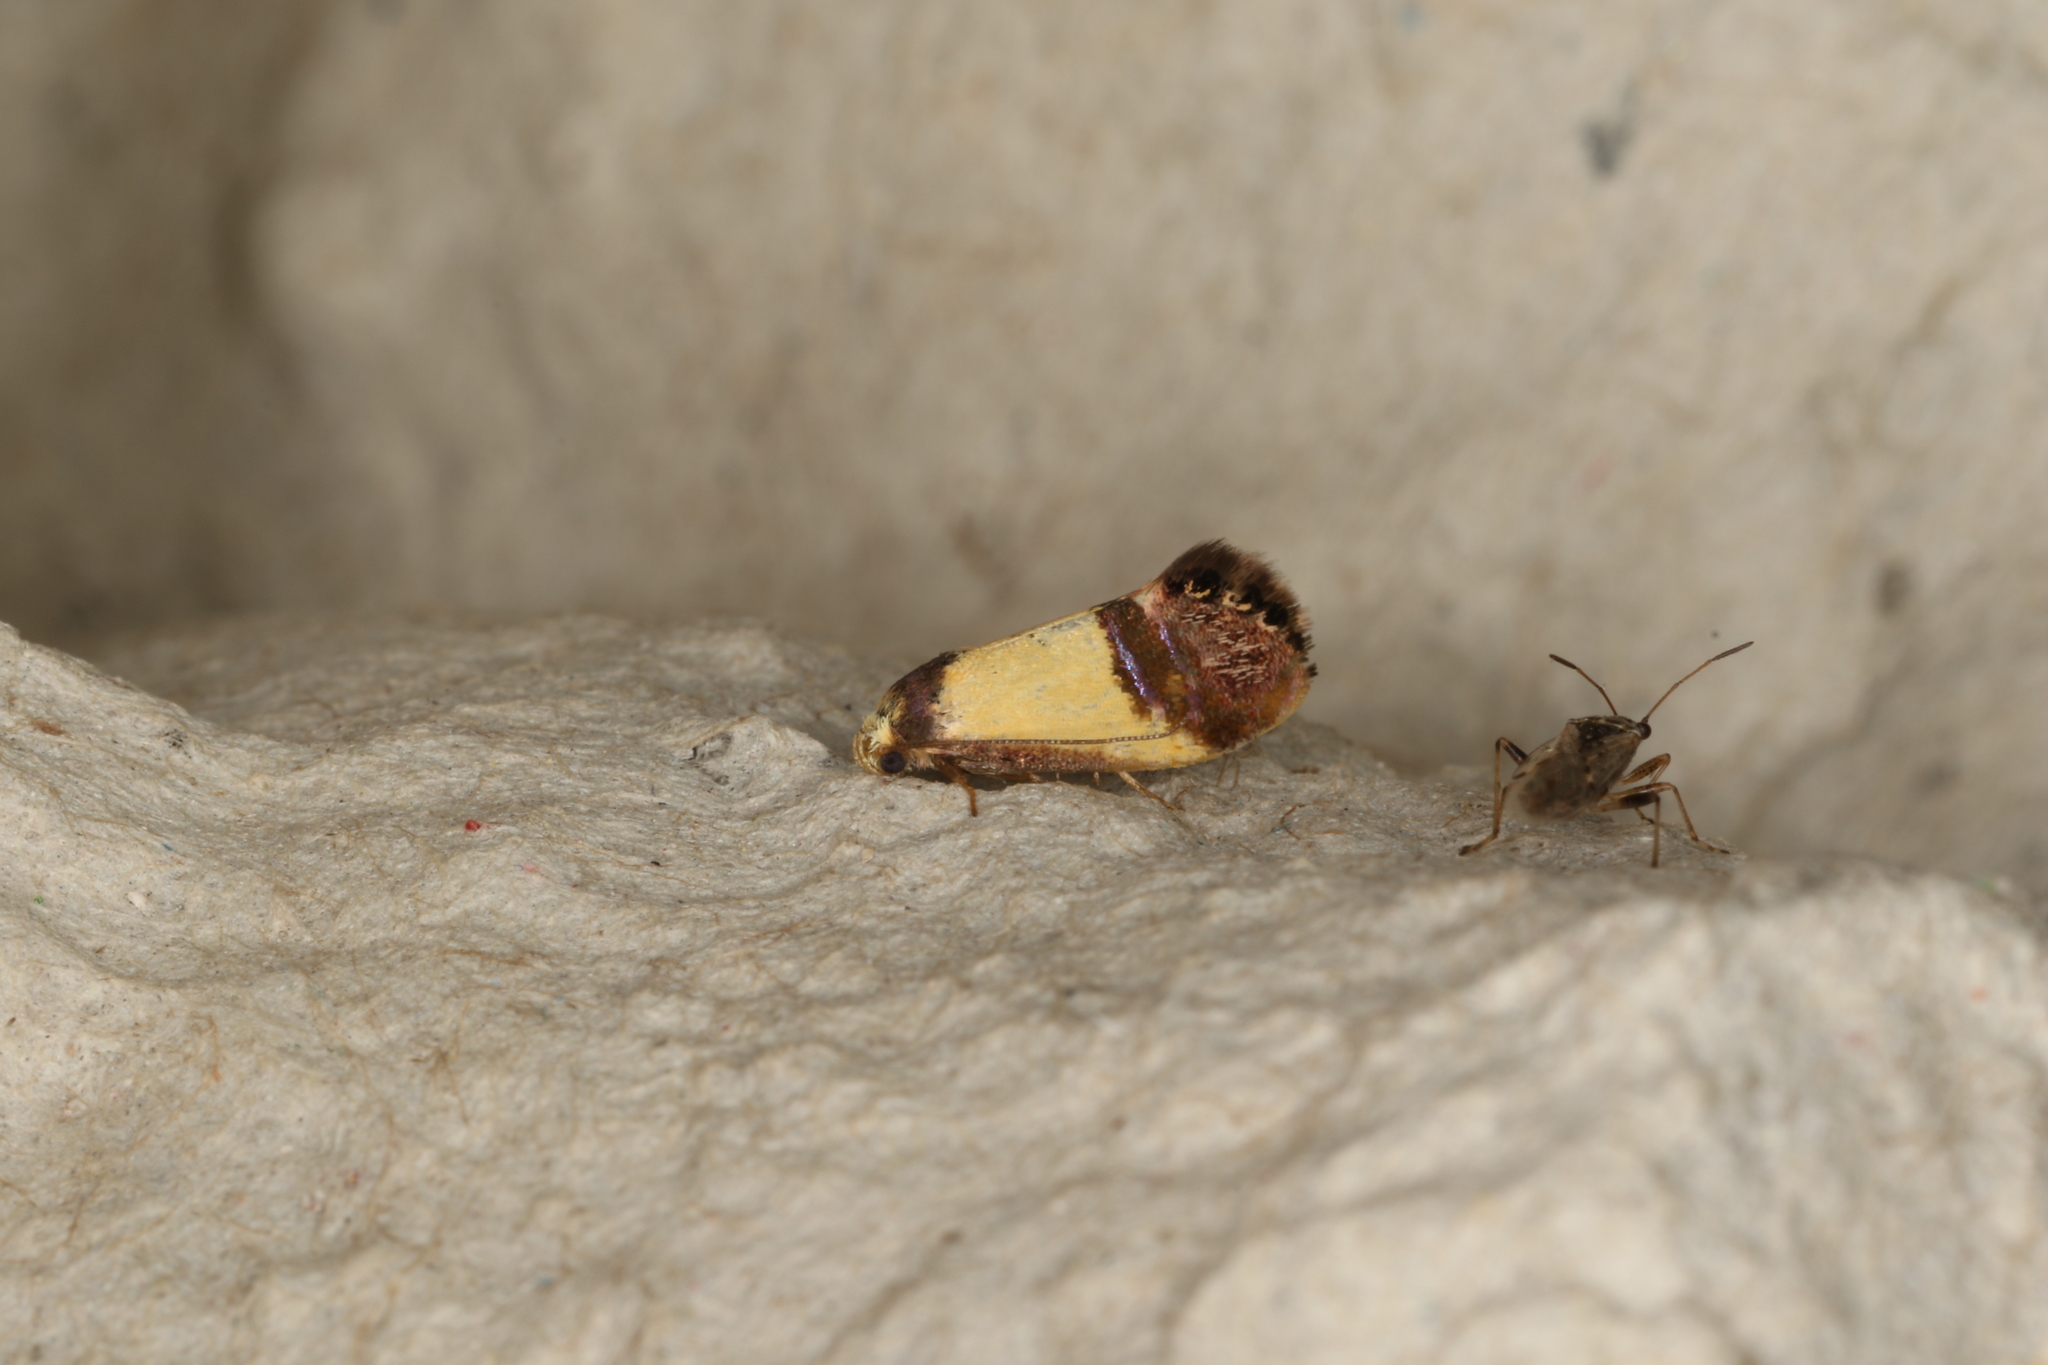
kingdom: Animalia
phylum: Arthropoda
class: Insecta
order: Lepidoptera
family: Depressariidae
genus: Eupselia
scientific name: Eupselia satrapella
